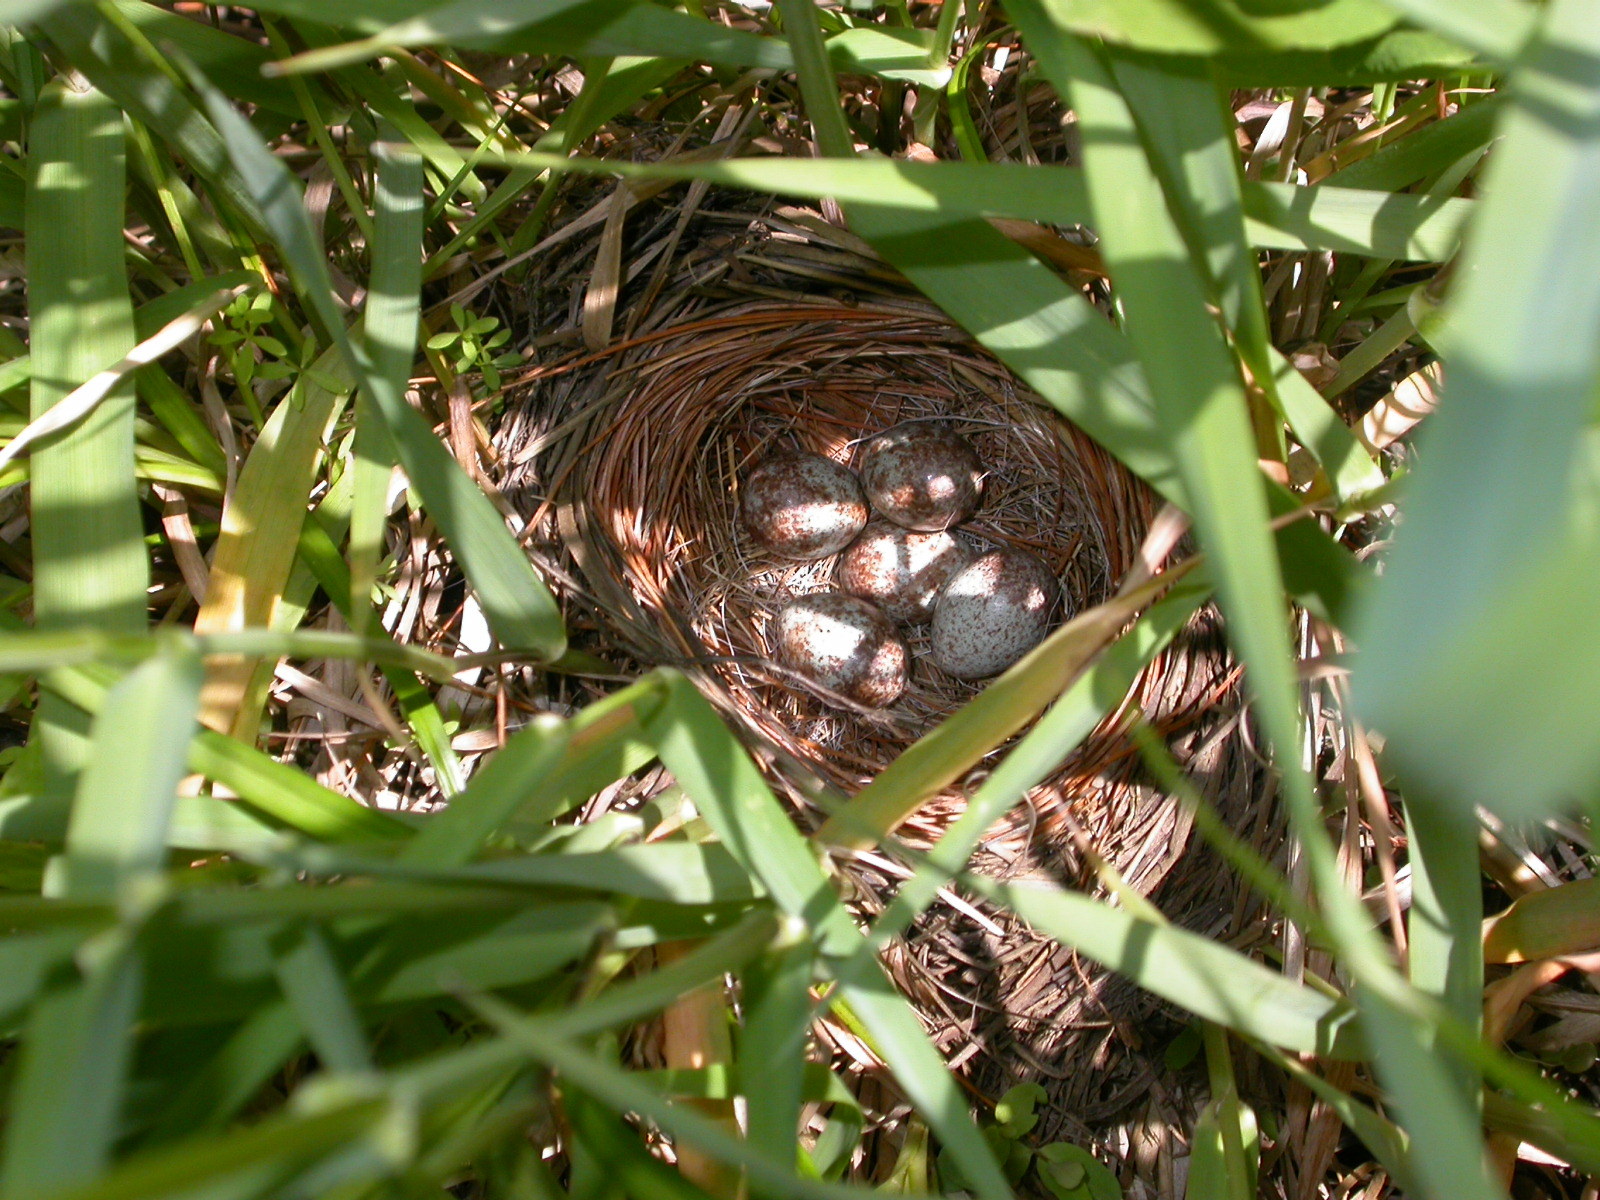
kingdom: Animalia
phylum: Chordata
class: Aves
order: Passeriformes
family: Passerellidae
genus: Melospiza
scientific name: Melospiza melodia
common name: Song sparrow
